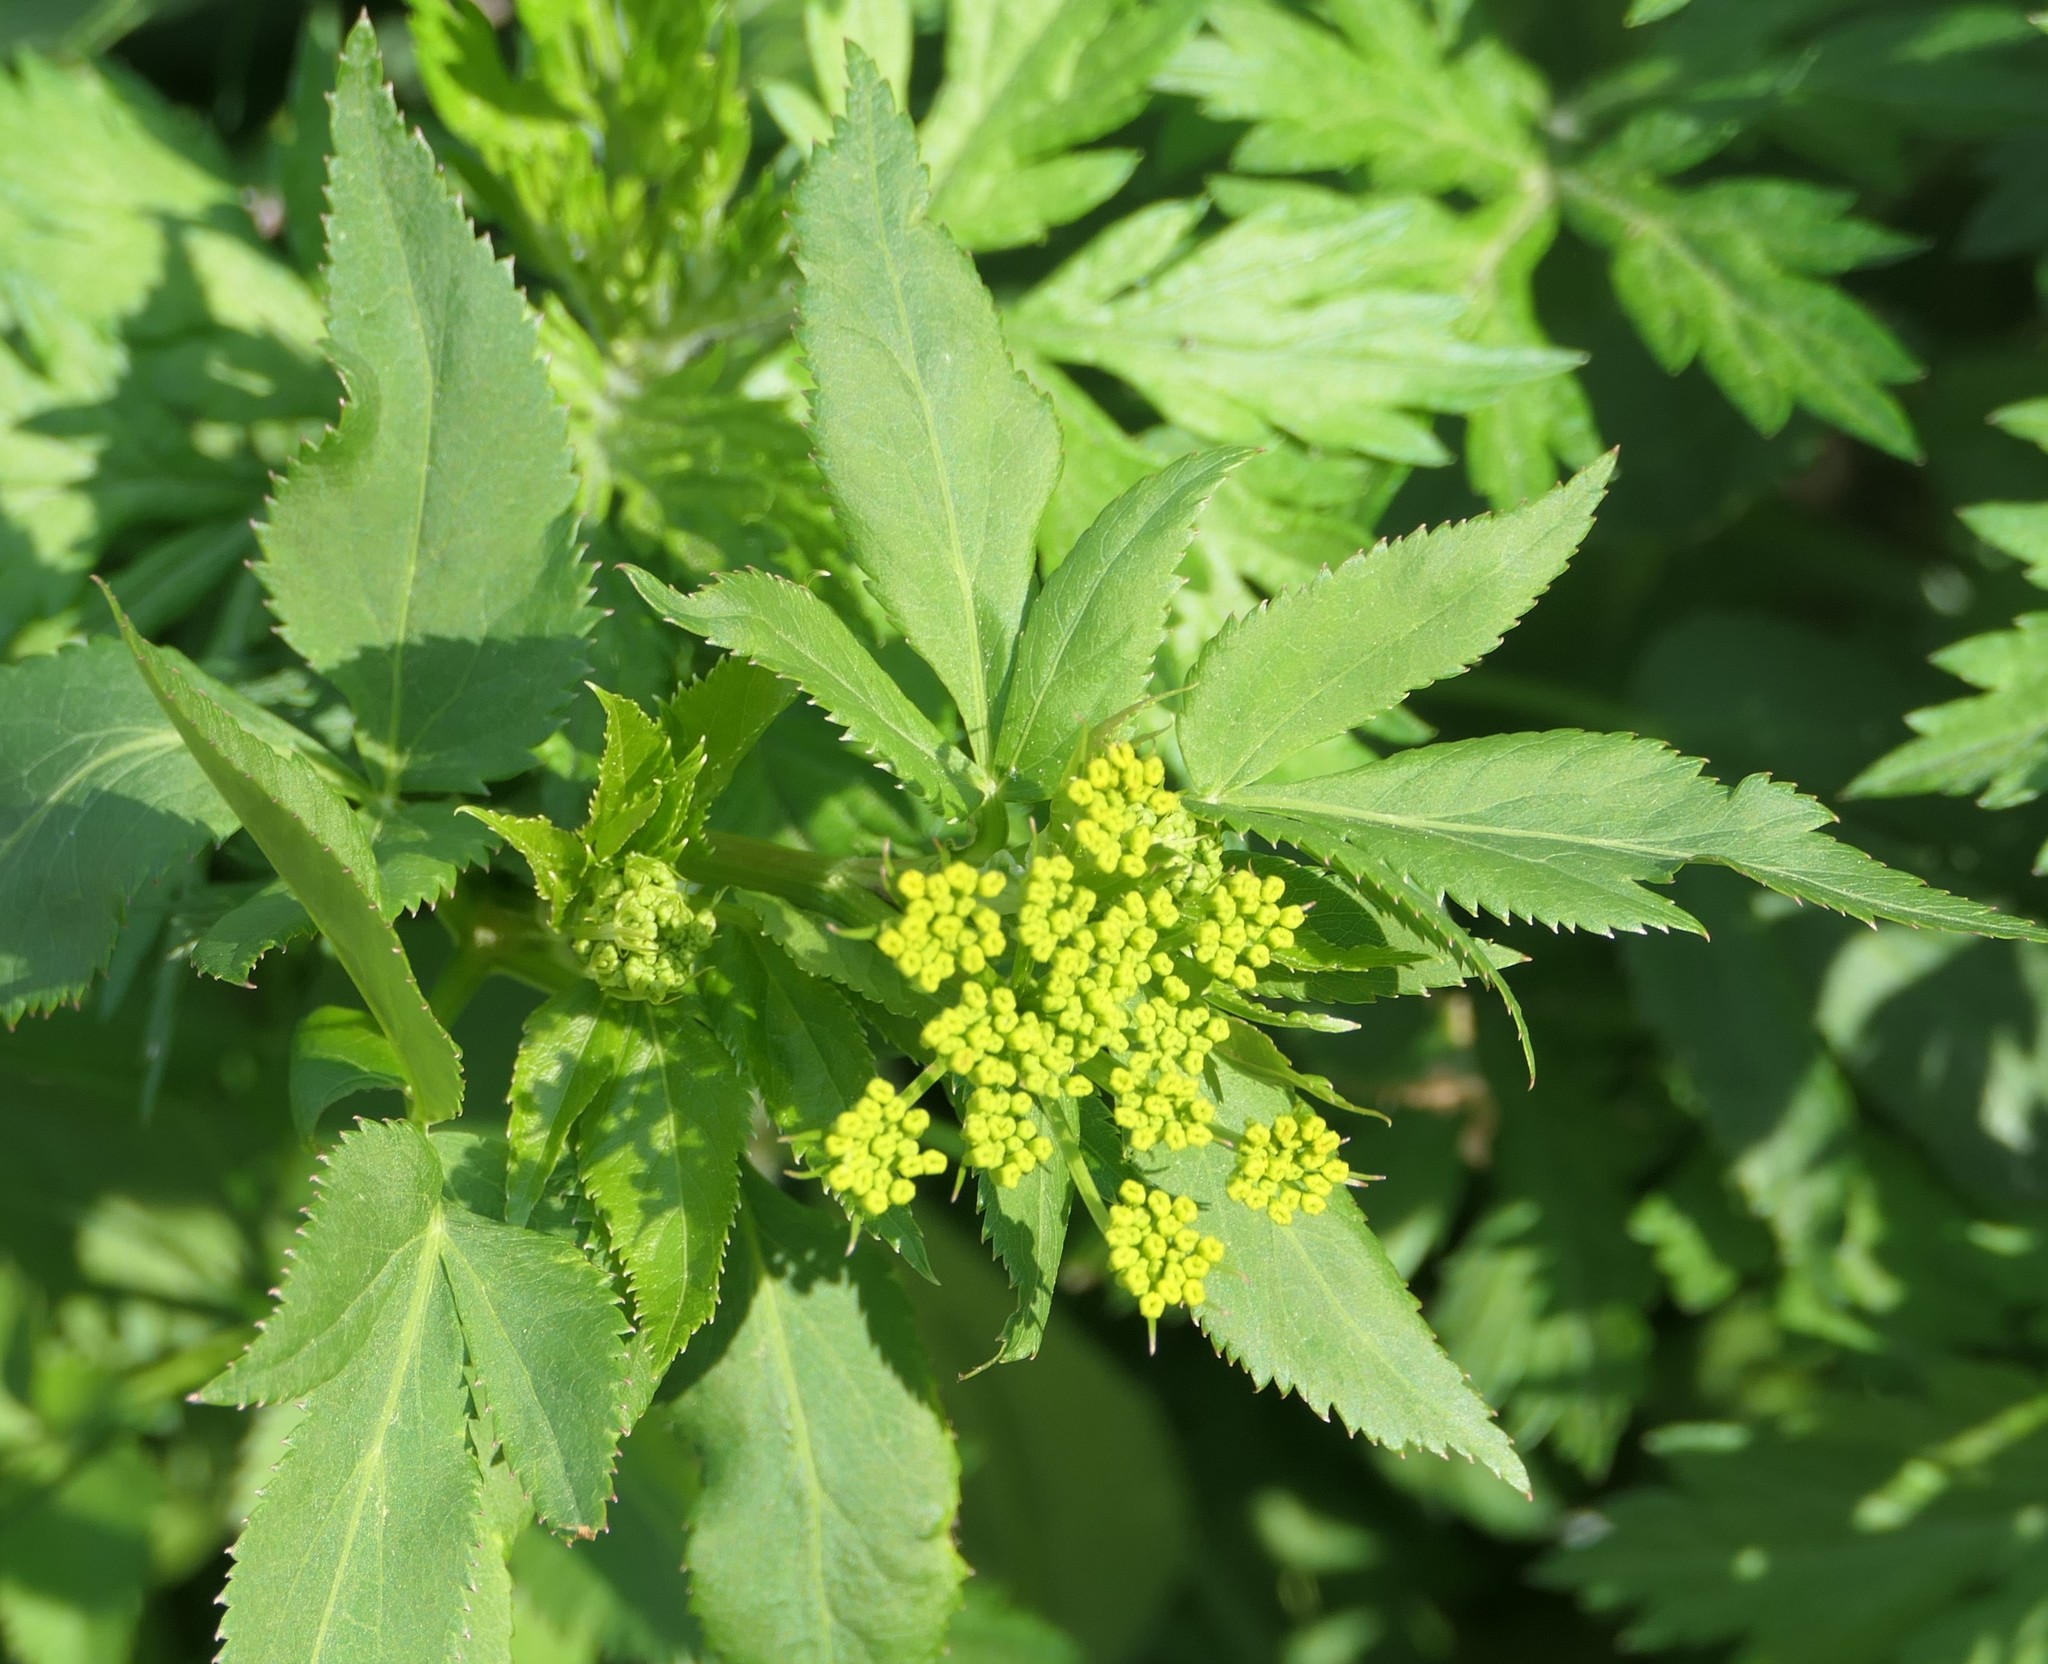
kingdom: Plantae
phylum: Tracheophyta
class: Magnoliopsida
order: Apiales
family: Apiaceae
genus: Zizia
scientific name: Zizia aurea
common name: Golden alexanders
